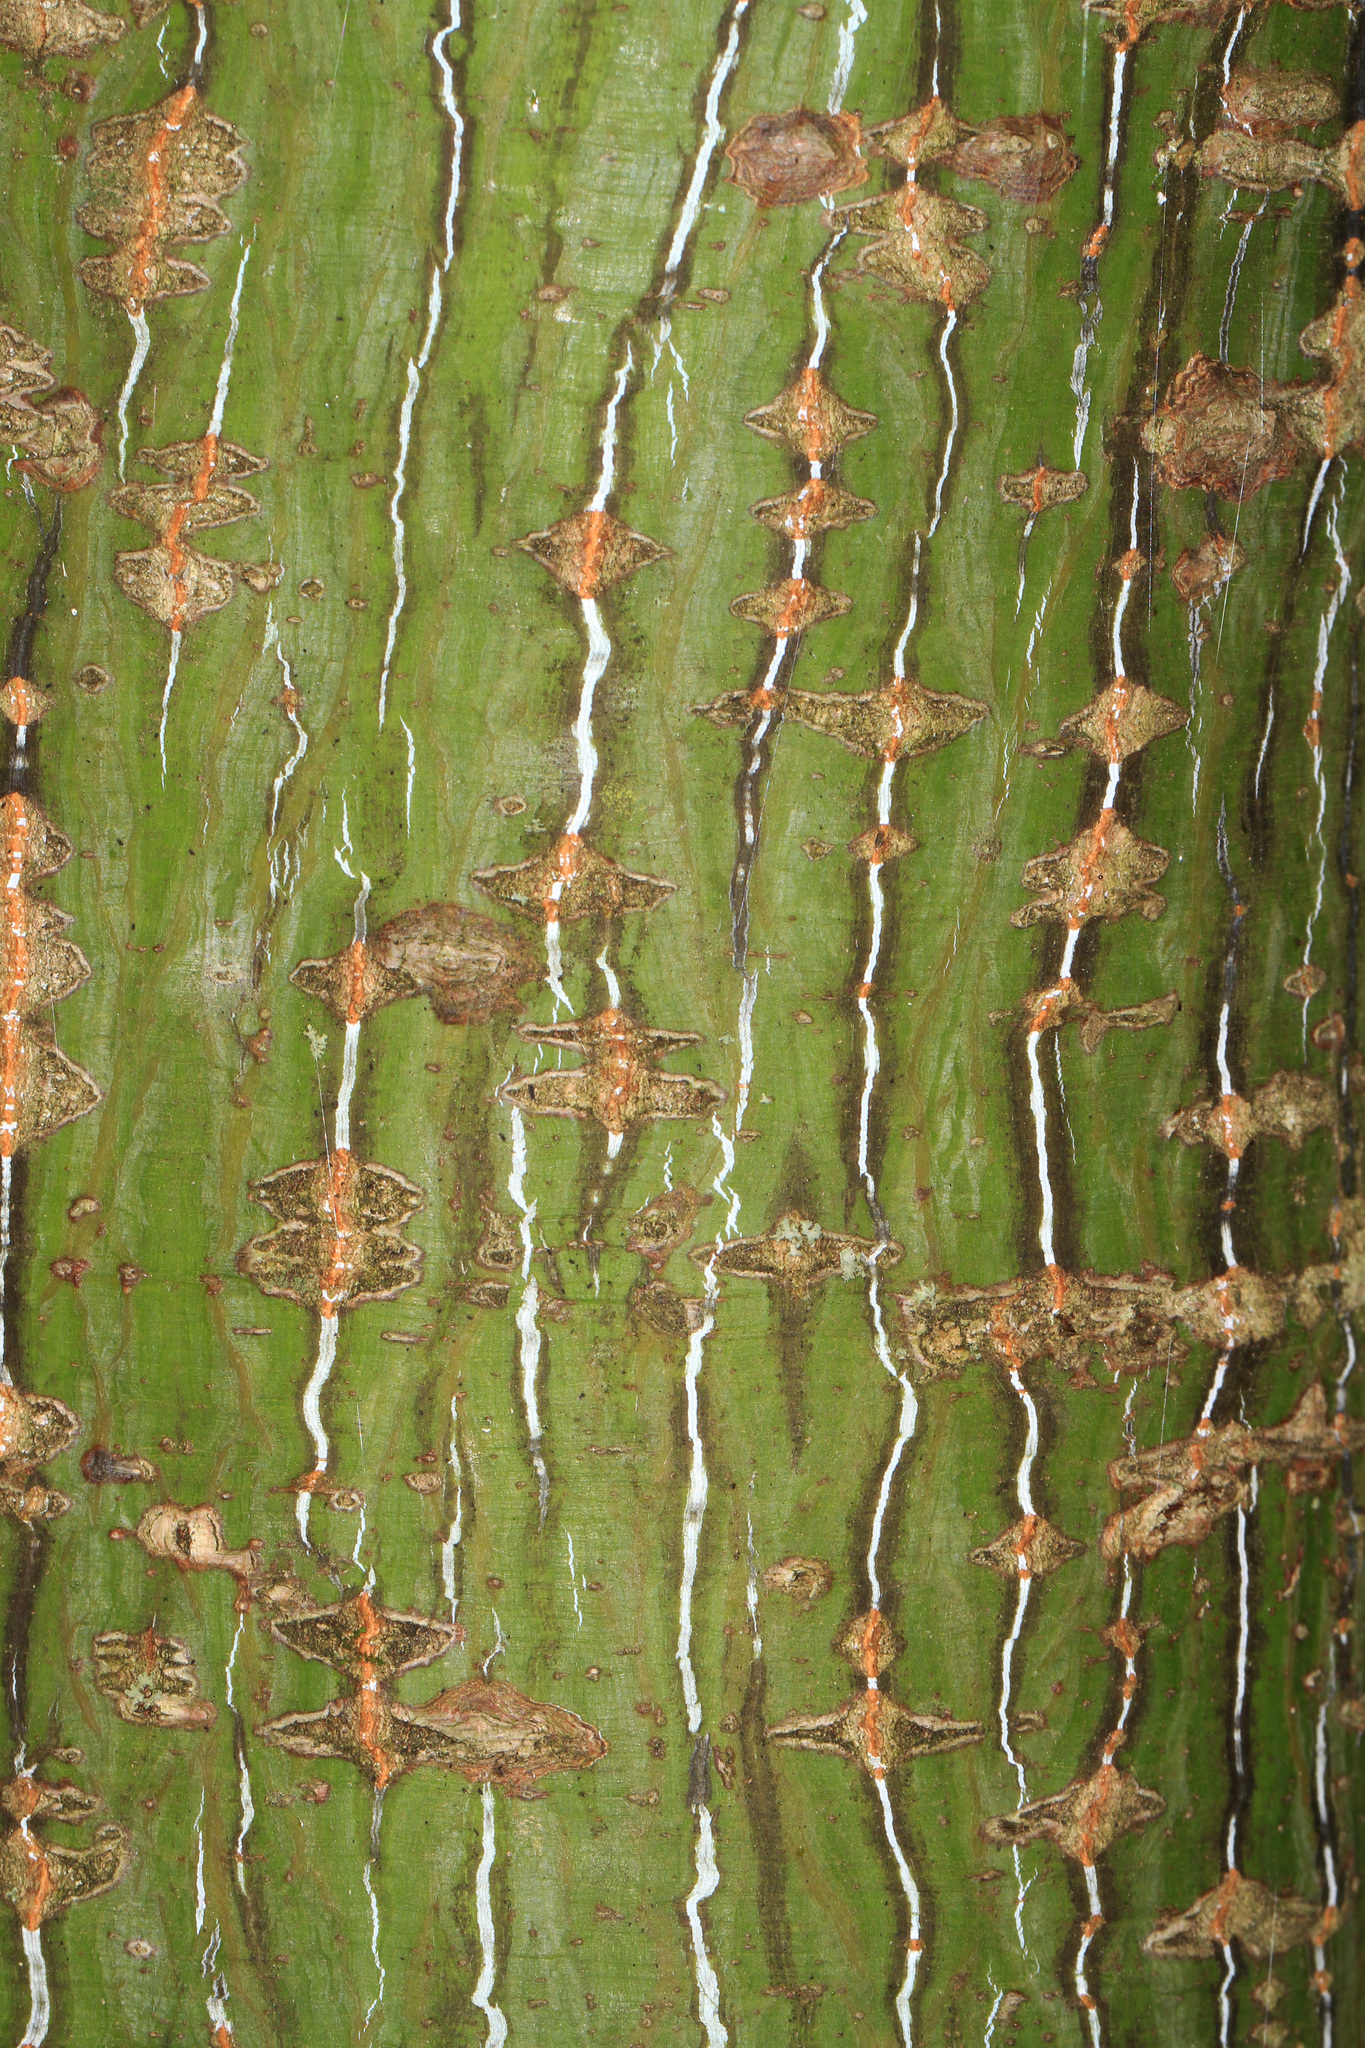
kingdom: Plantae
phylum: Tracheophyta
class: Magnoliopsida
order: Sapindales
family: Sapindaceae
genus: Acer
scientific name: Acer pensylvanicum
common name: Moosewood
